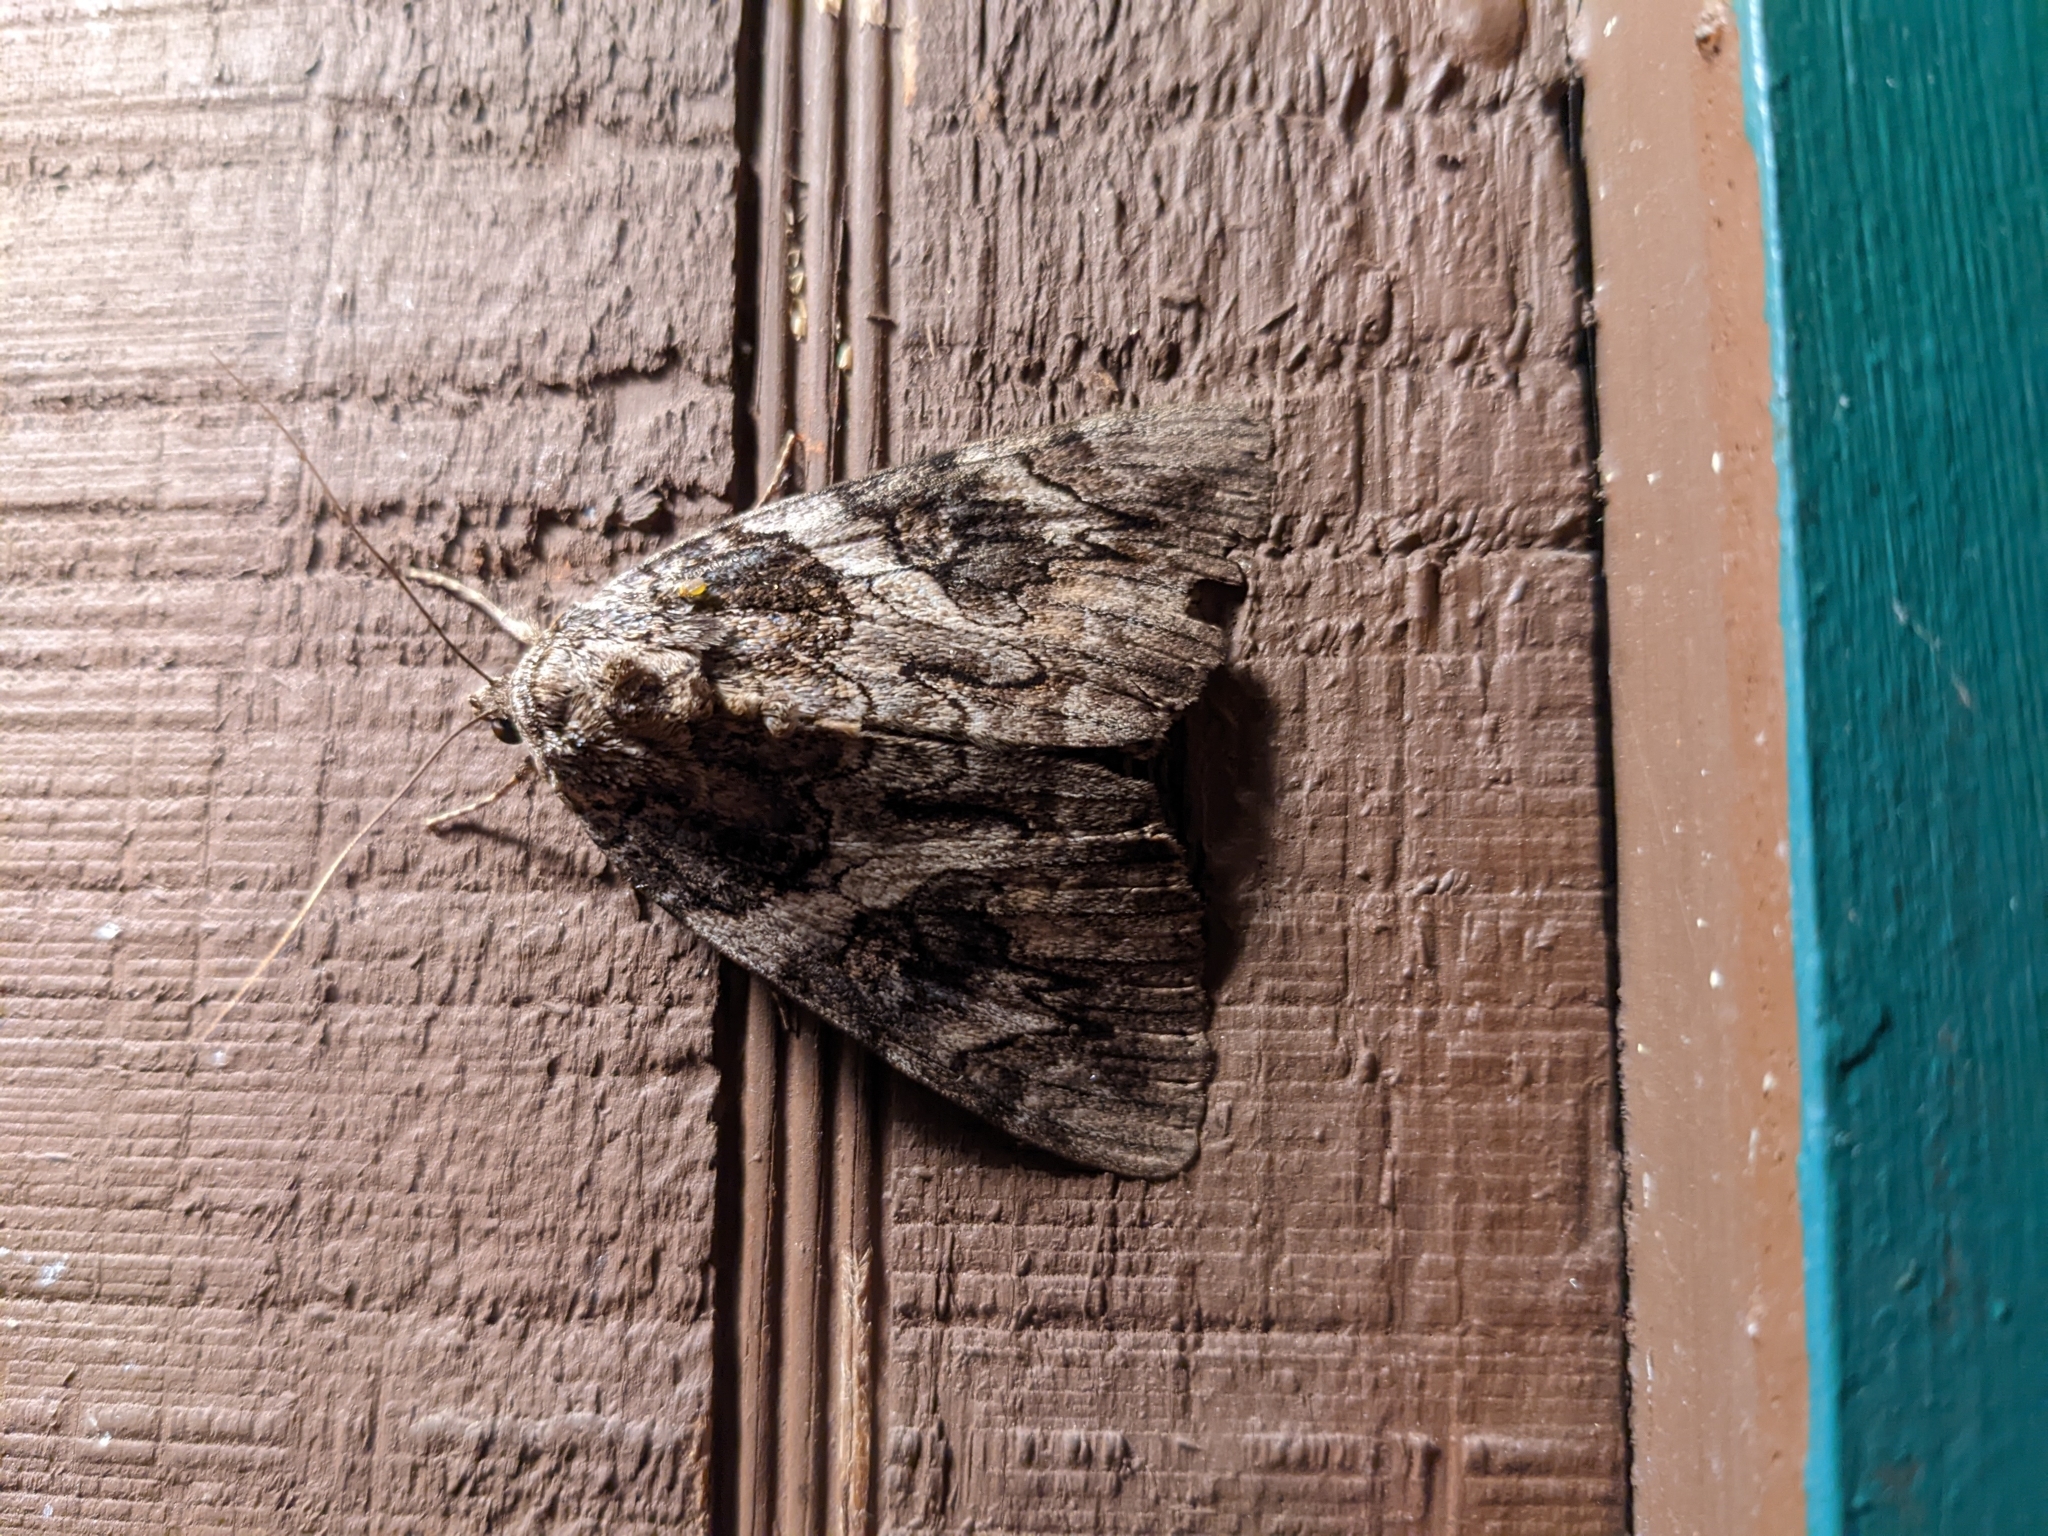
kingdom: Animalia
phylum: Arthropoda
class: Insecta
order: Lepidoptera
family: Erebidae
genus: Catocala
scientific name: Catocala piatrix
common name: The penitent underwing
